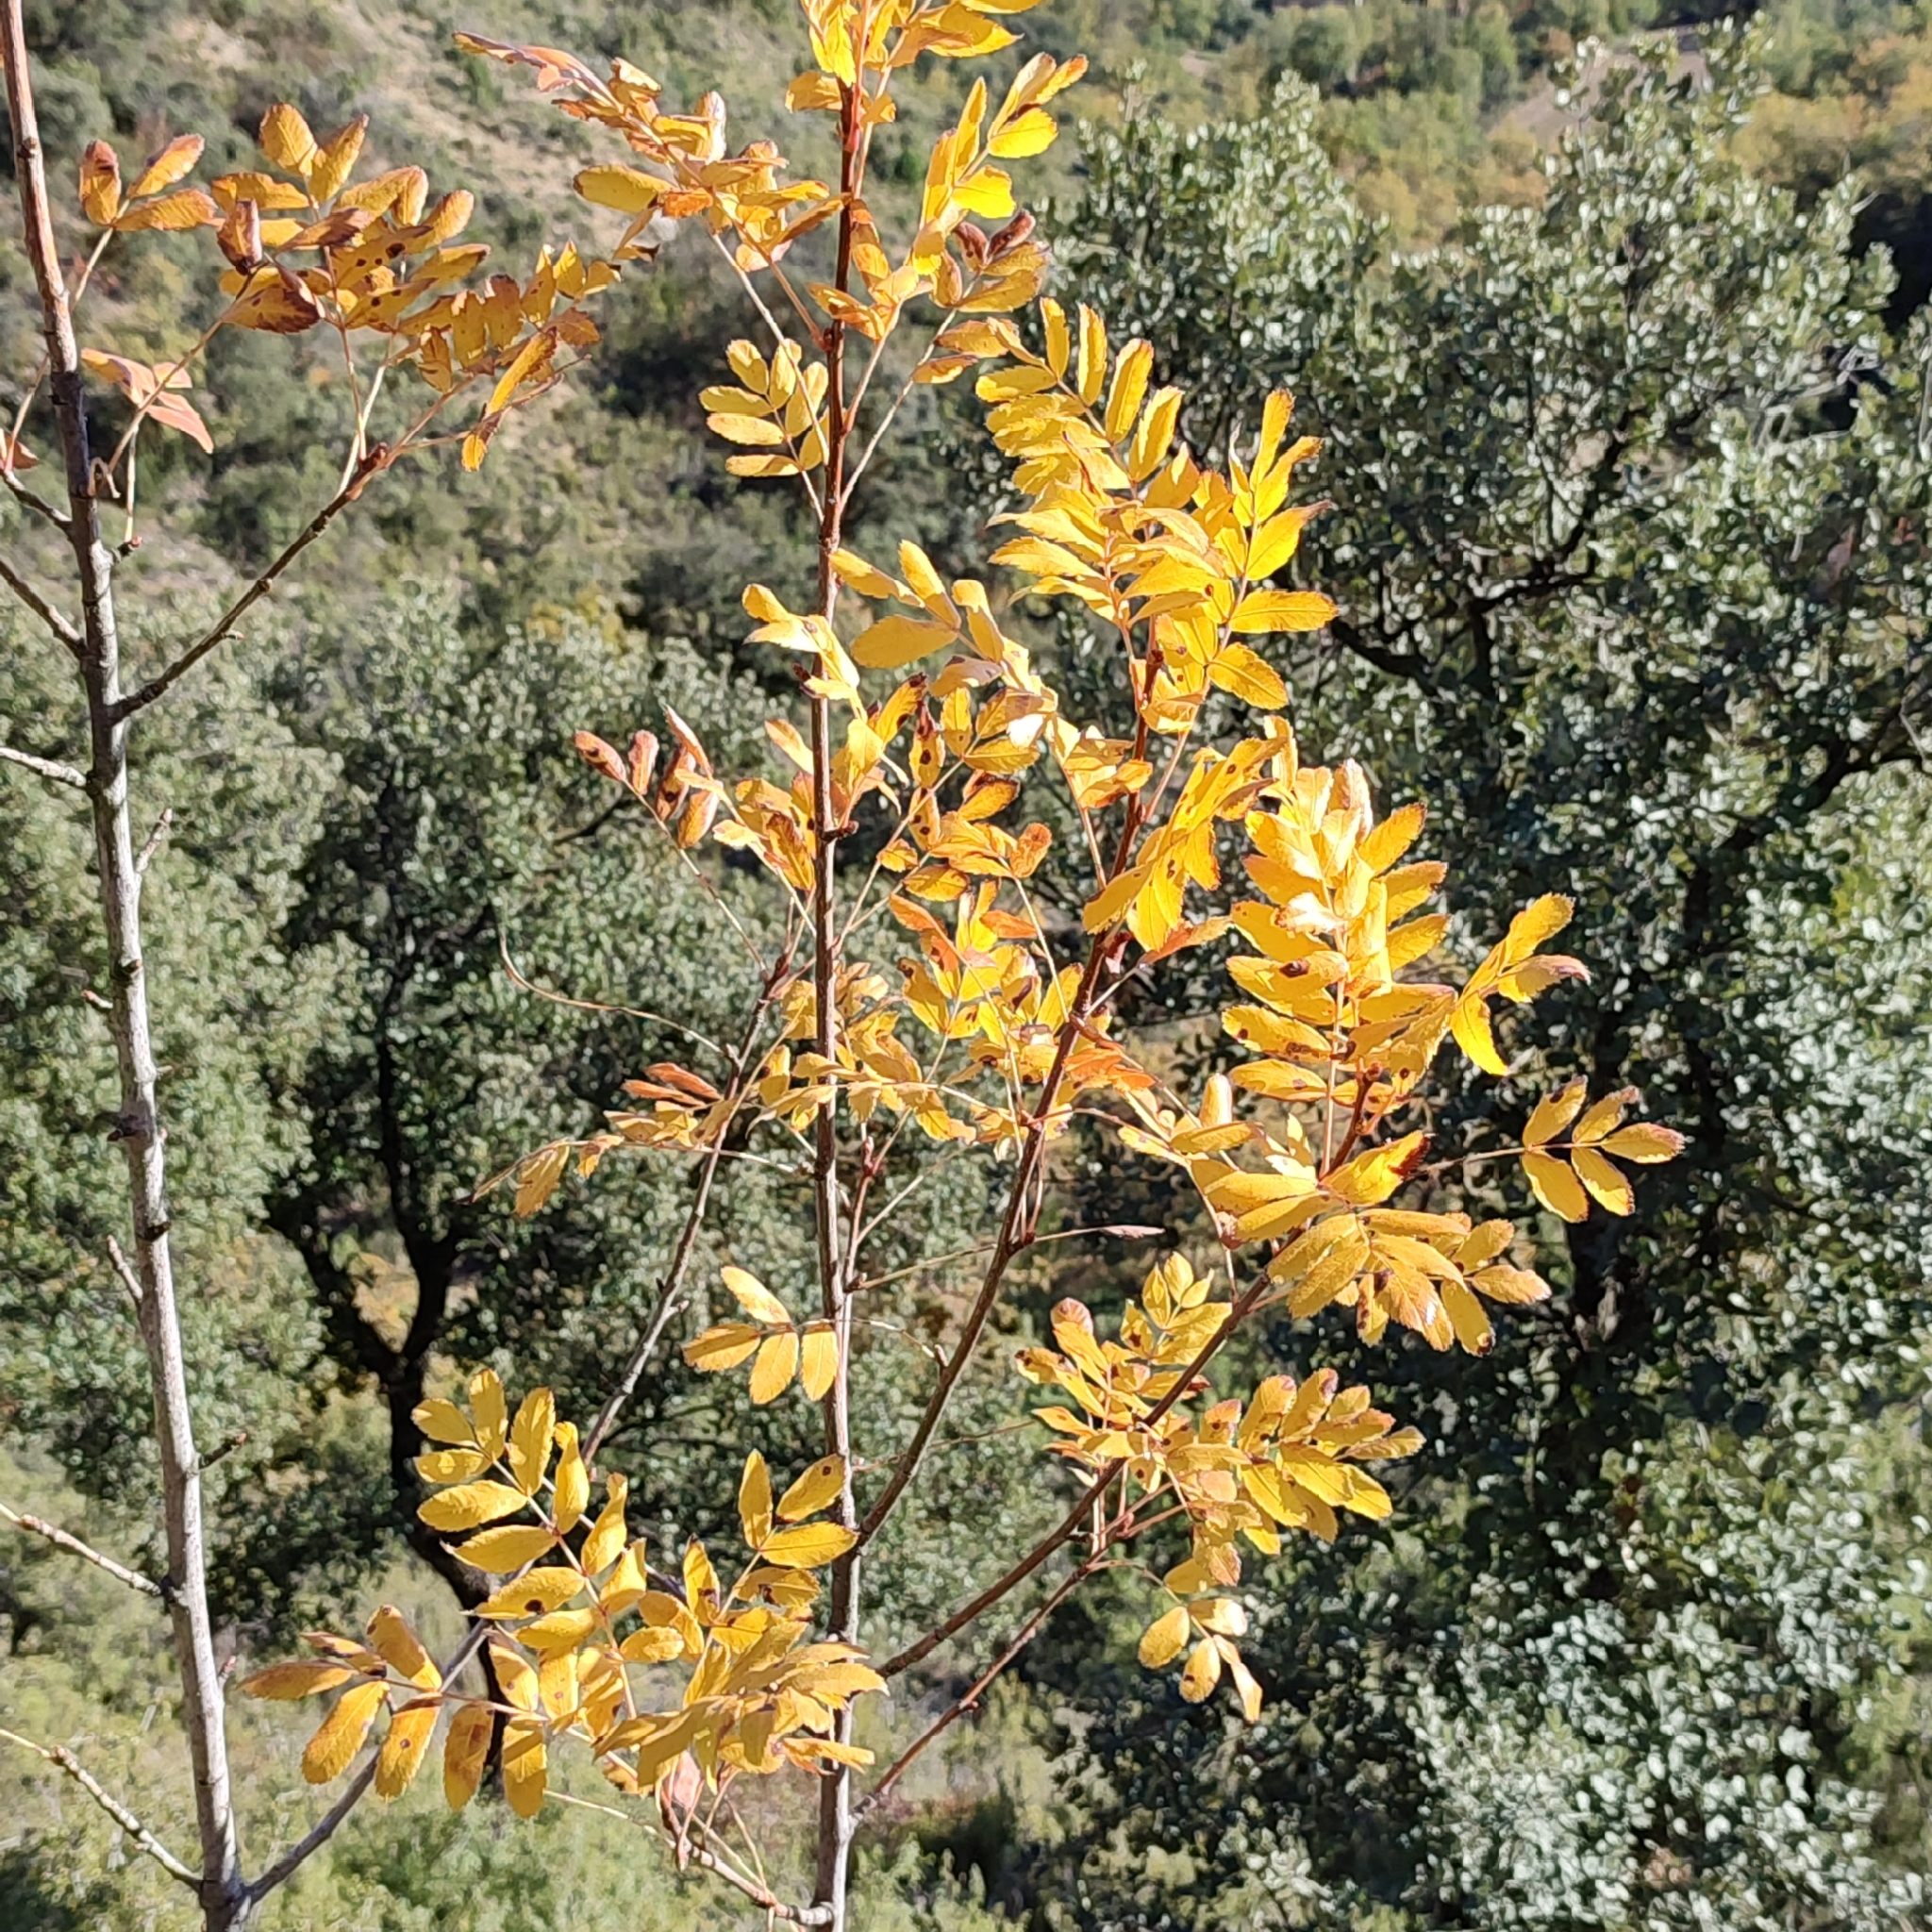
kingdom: Plantae
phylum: Tracheophyta
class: Magnoliopsida
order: Rosales
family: Rosaceae
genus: Sorbus
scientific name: Sorbus aucuparia
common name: Rowan
